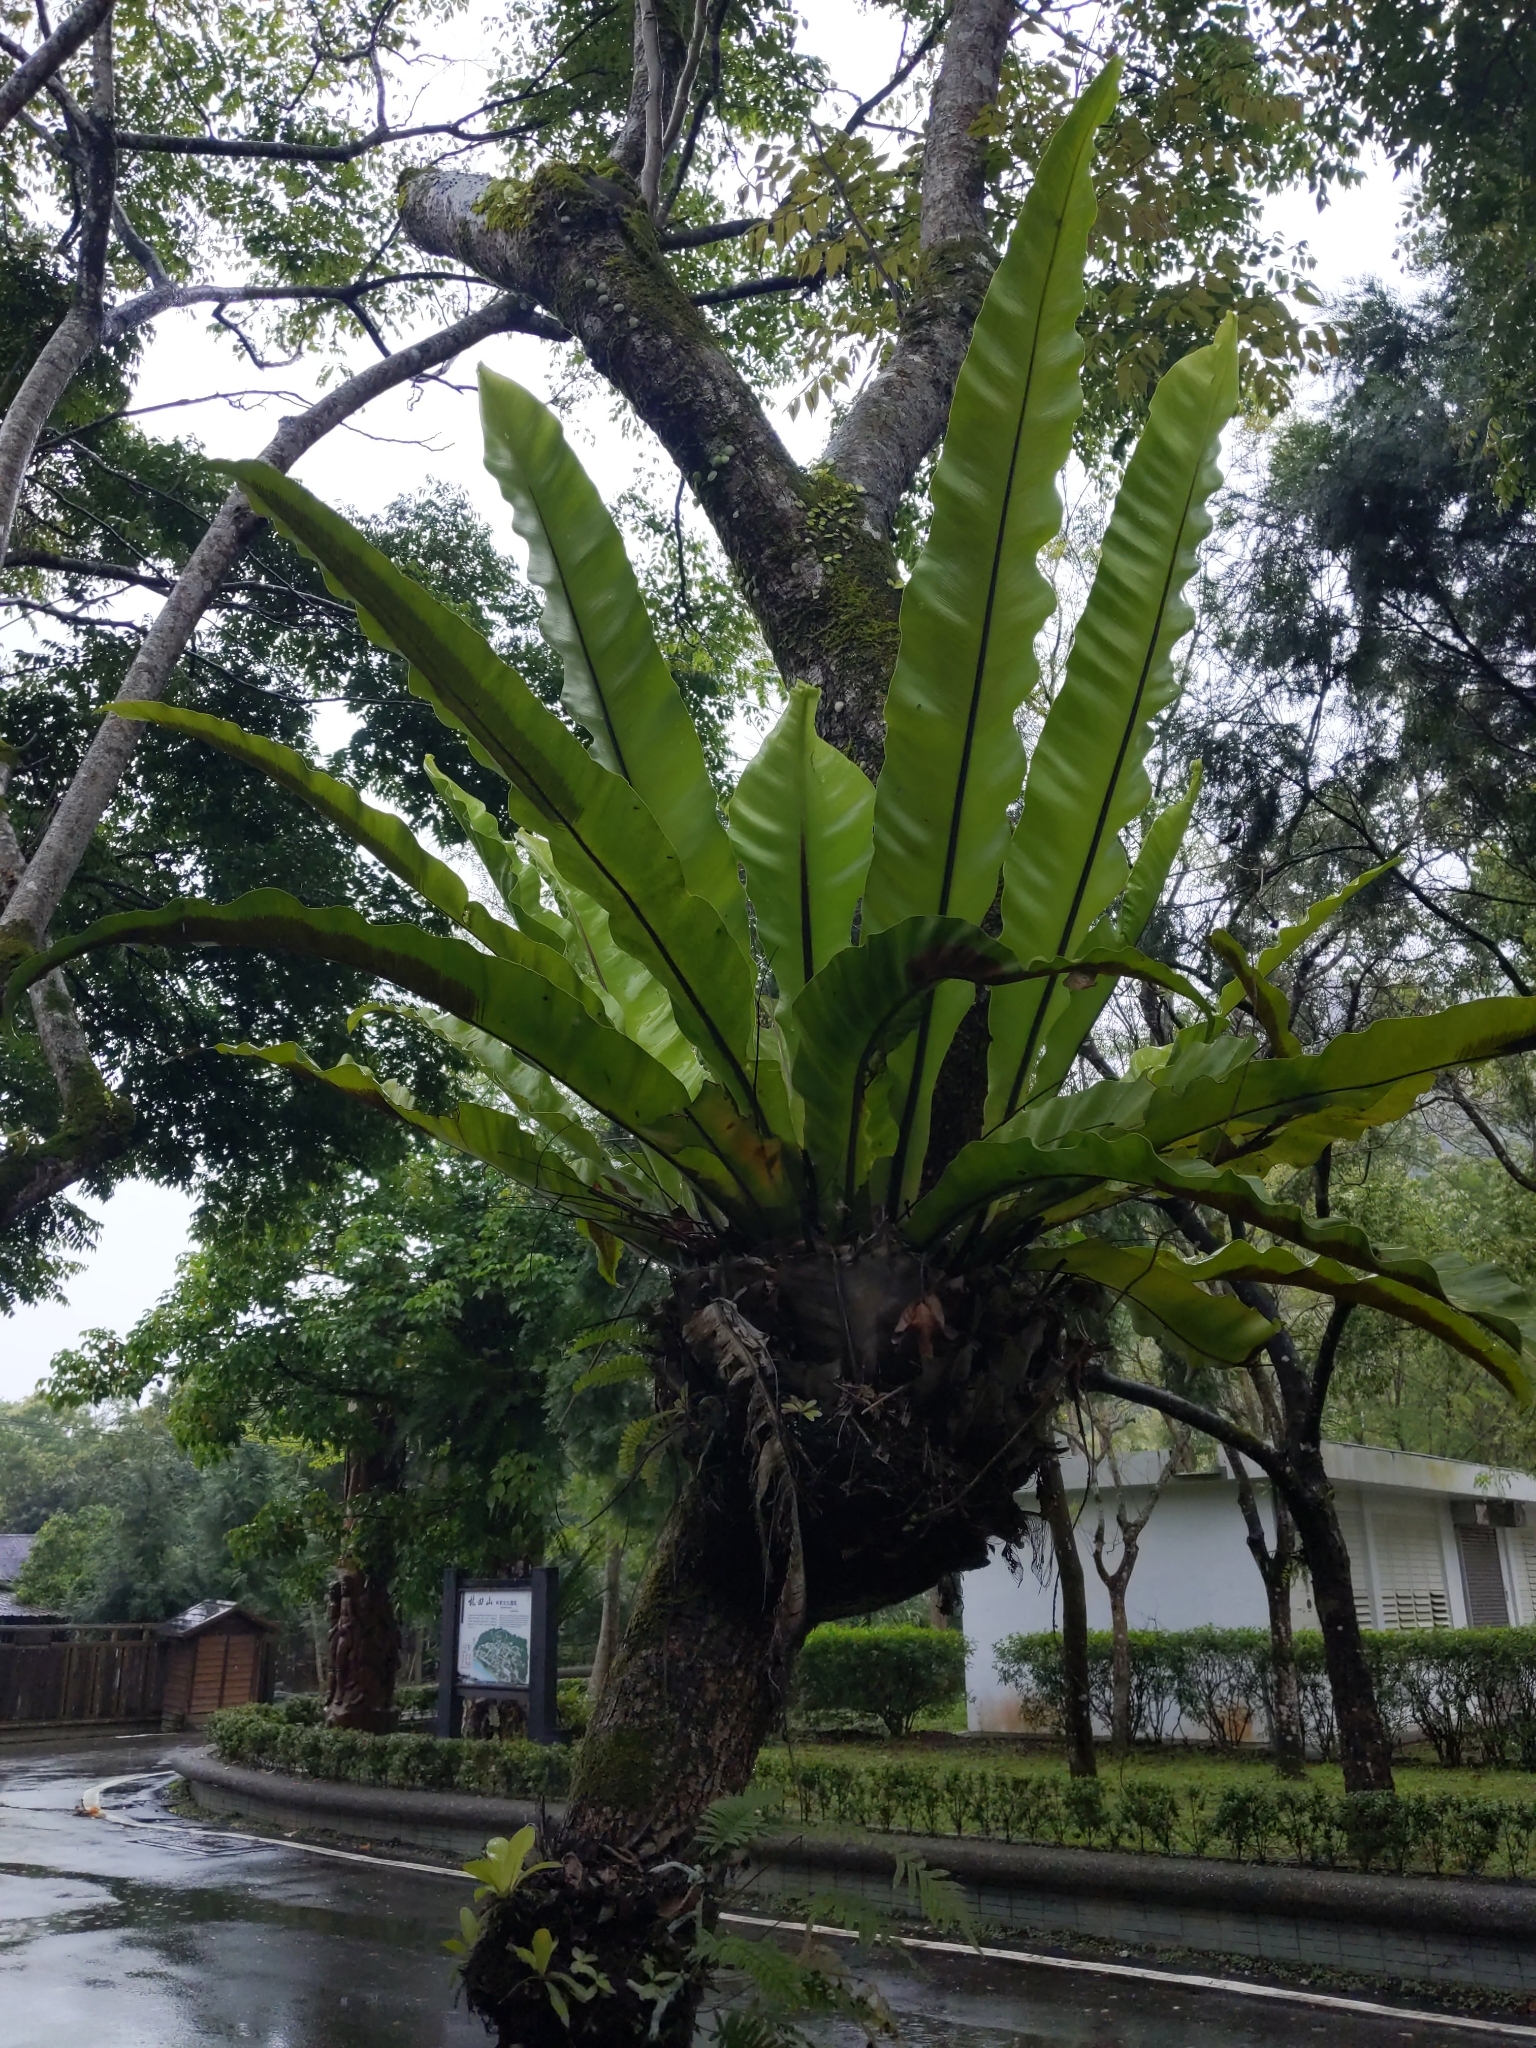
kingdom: Plantae
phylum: Tracheophyta
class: Polypodiopsida
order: Polypodiales
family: Aspleniaceae
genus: Asplenium
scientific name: Asplenium nidus
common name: Bird's-nest fern
